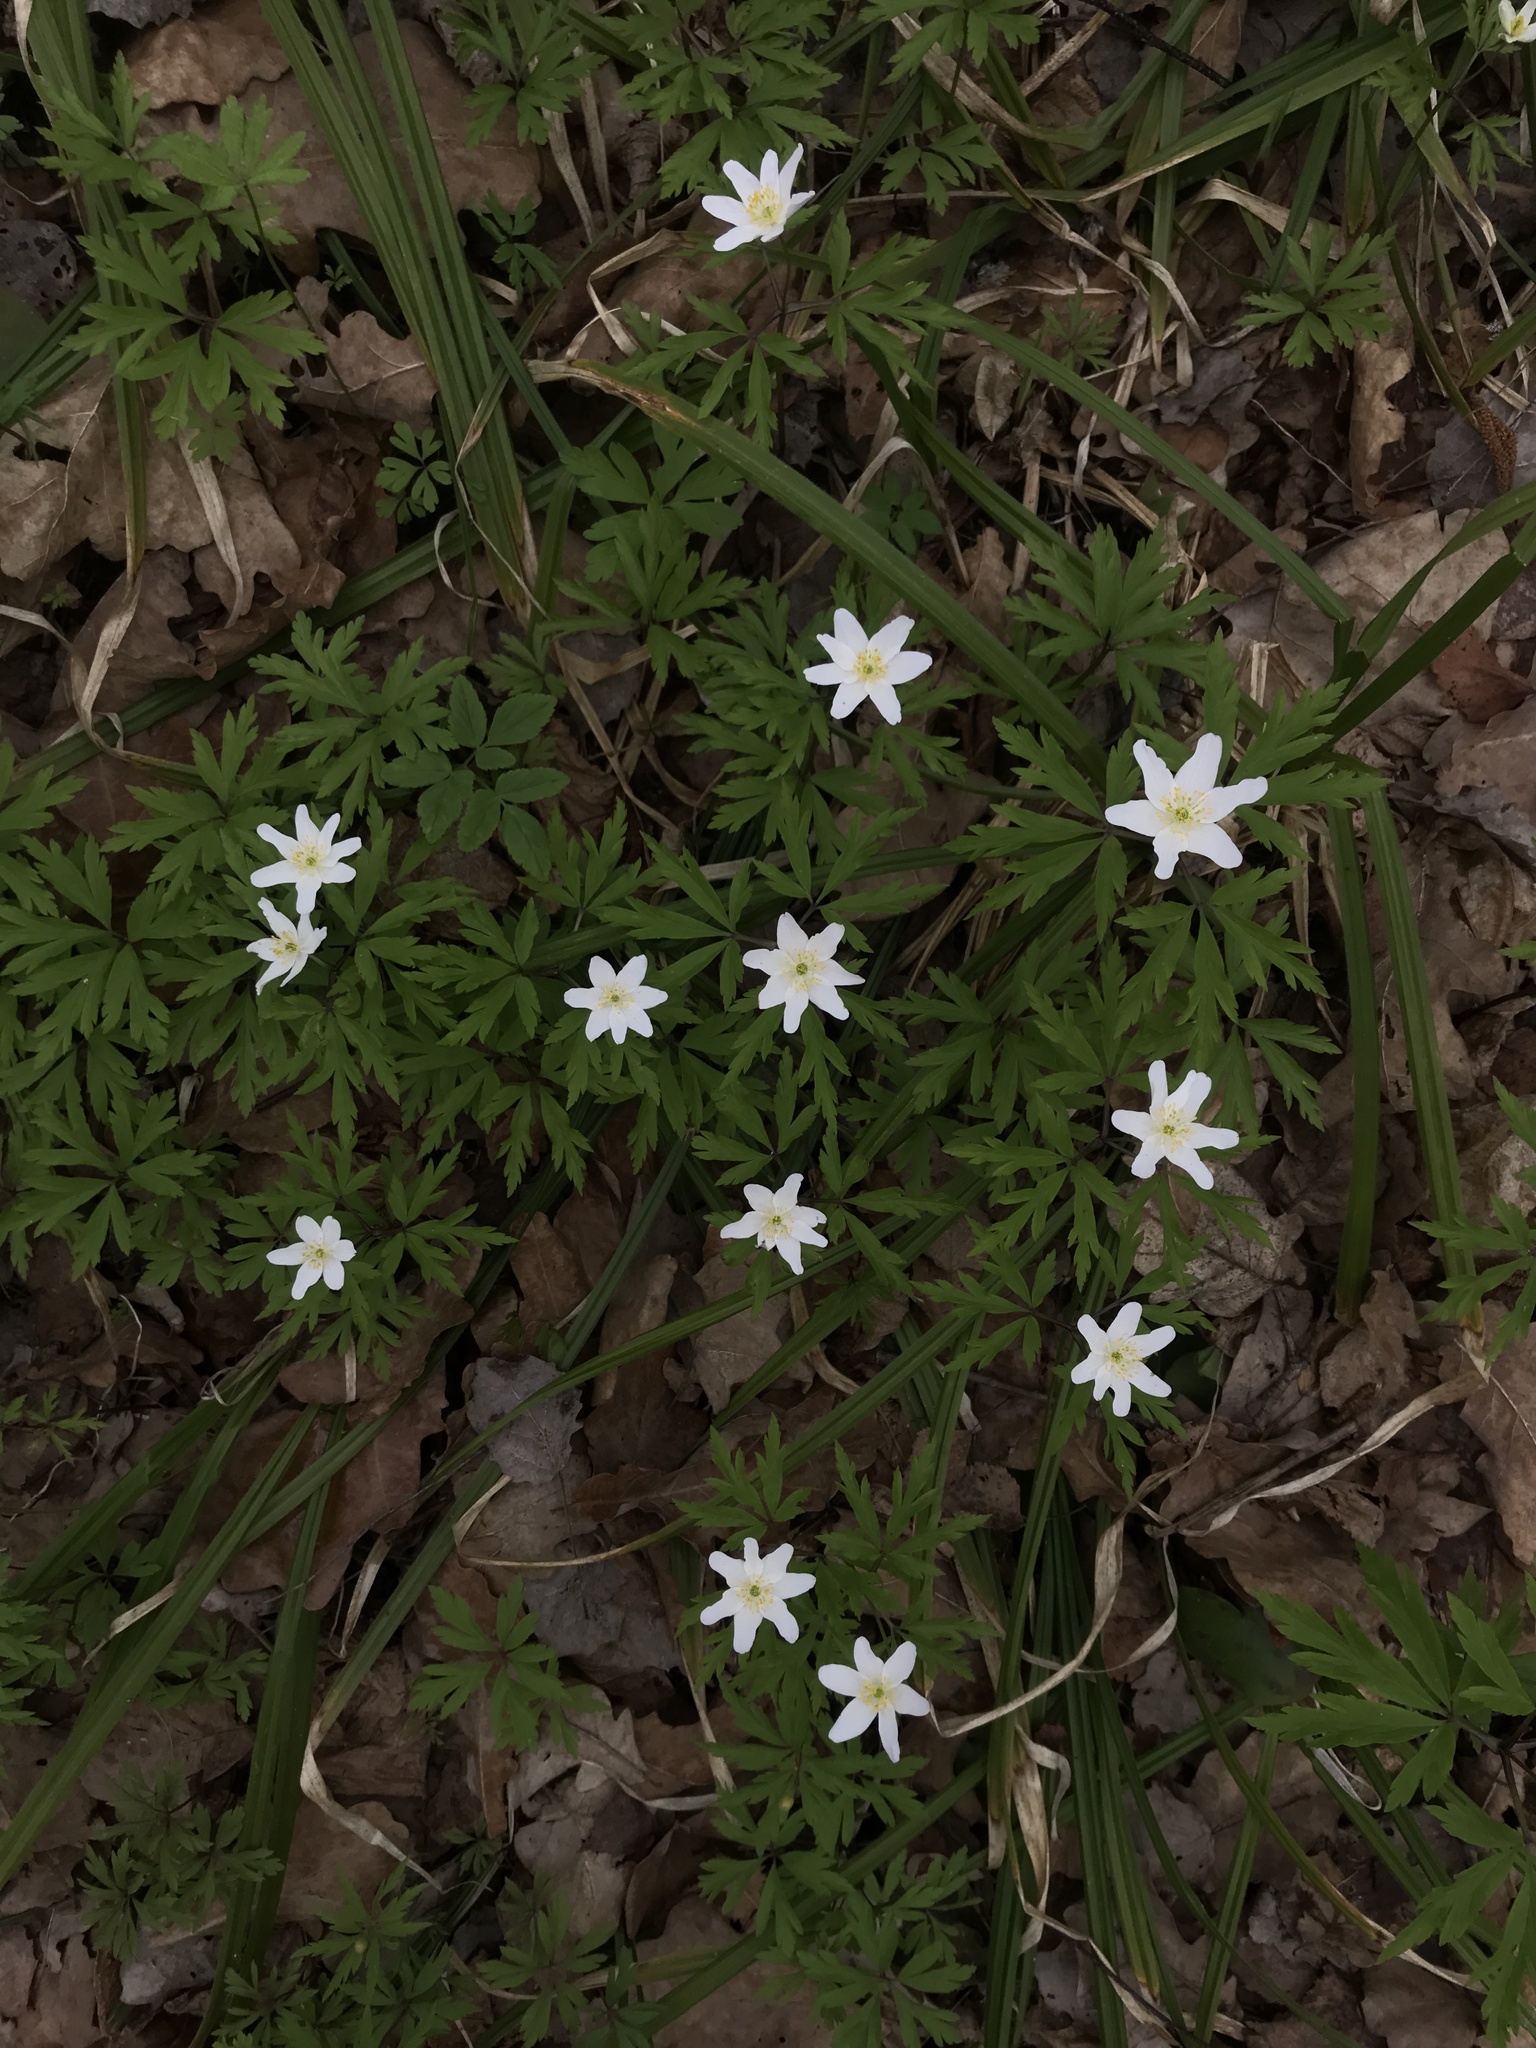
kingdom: Plantae
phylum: Tracheophyta
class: Magnoliopsida
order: Ranunculales
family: Ranunculaceae
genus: Anemone
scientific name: Anemone nemorosa
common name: Wood anemone
